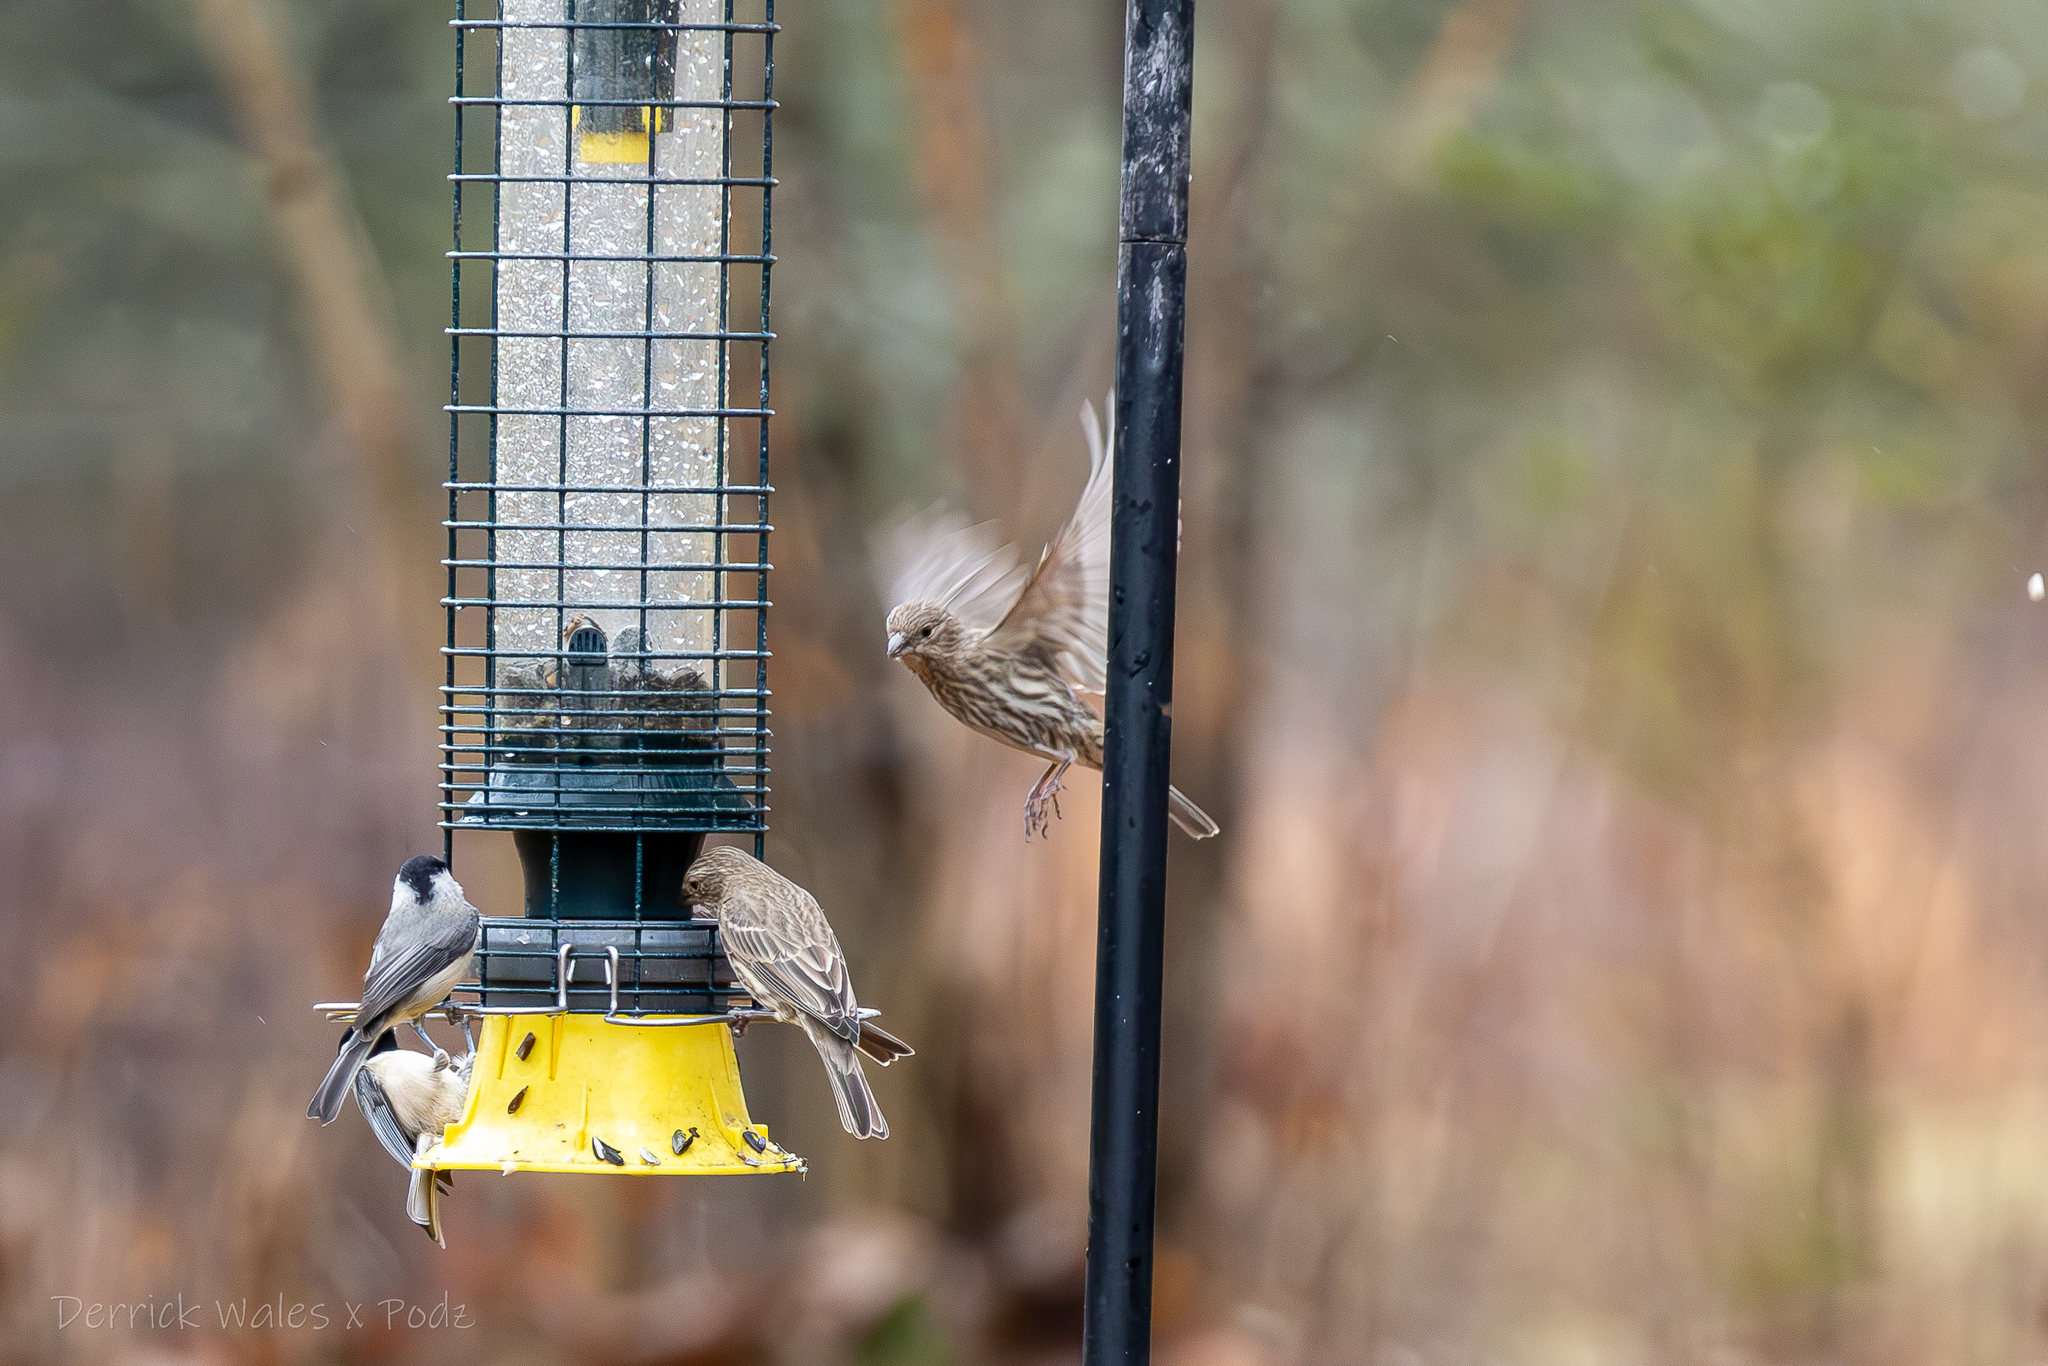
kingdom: Animalia
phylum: Chordata
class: Aves
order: Passeriformes
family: Fringillidae
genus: Haemorhous
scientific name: Haemorhous mexicanus
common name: House finch
